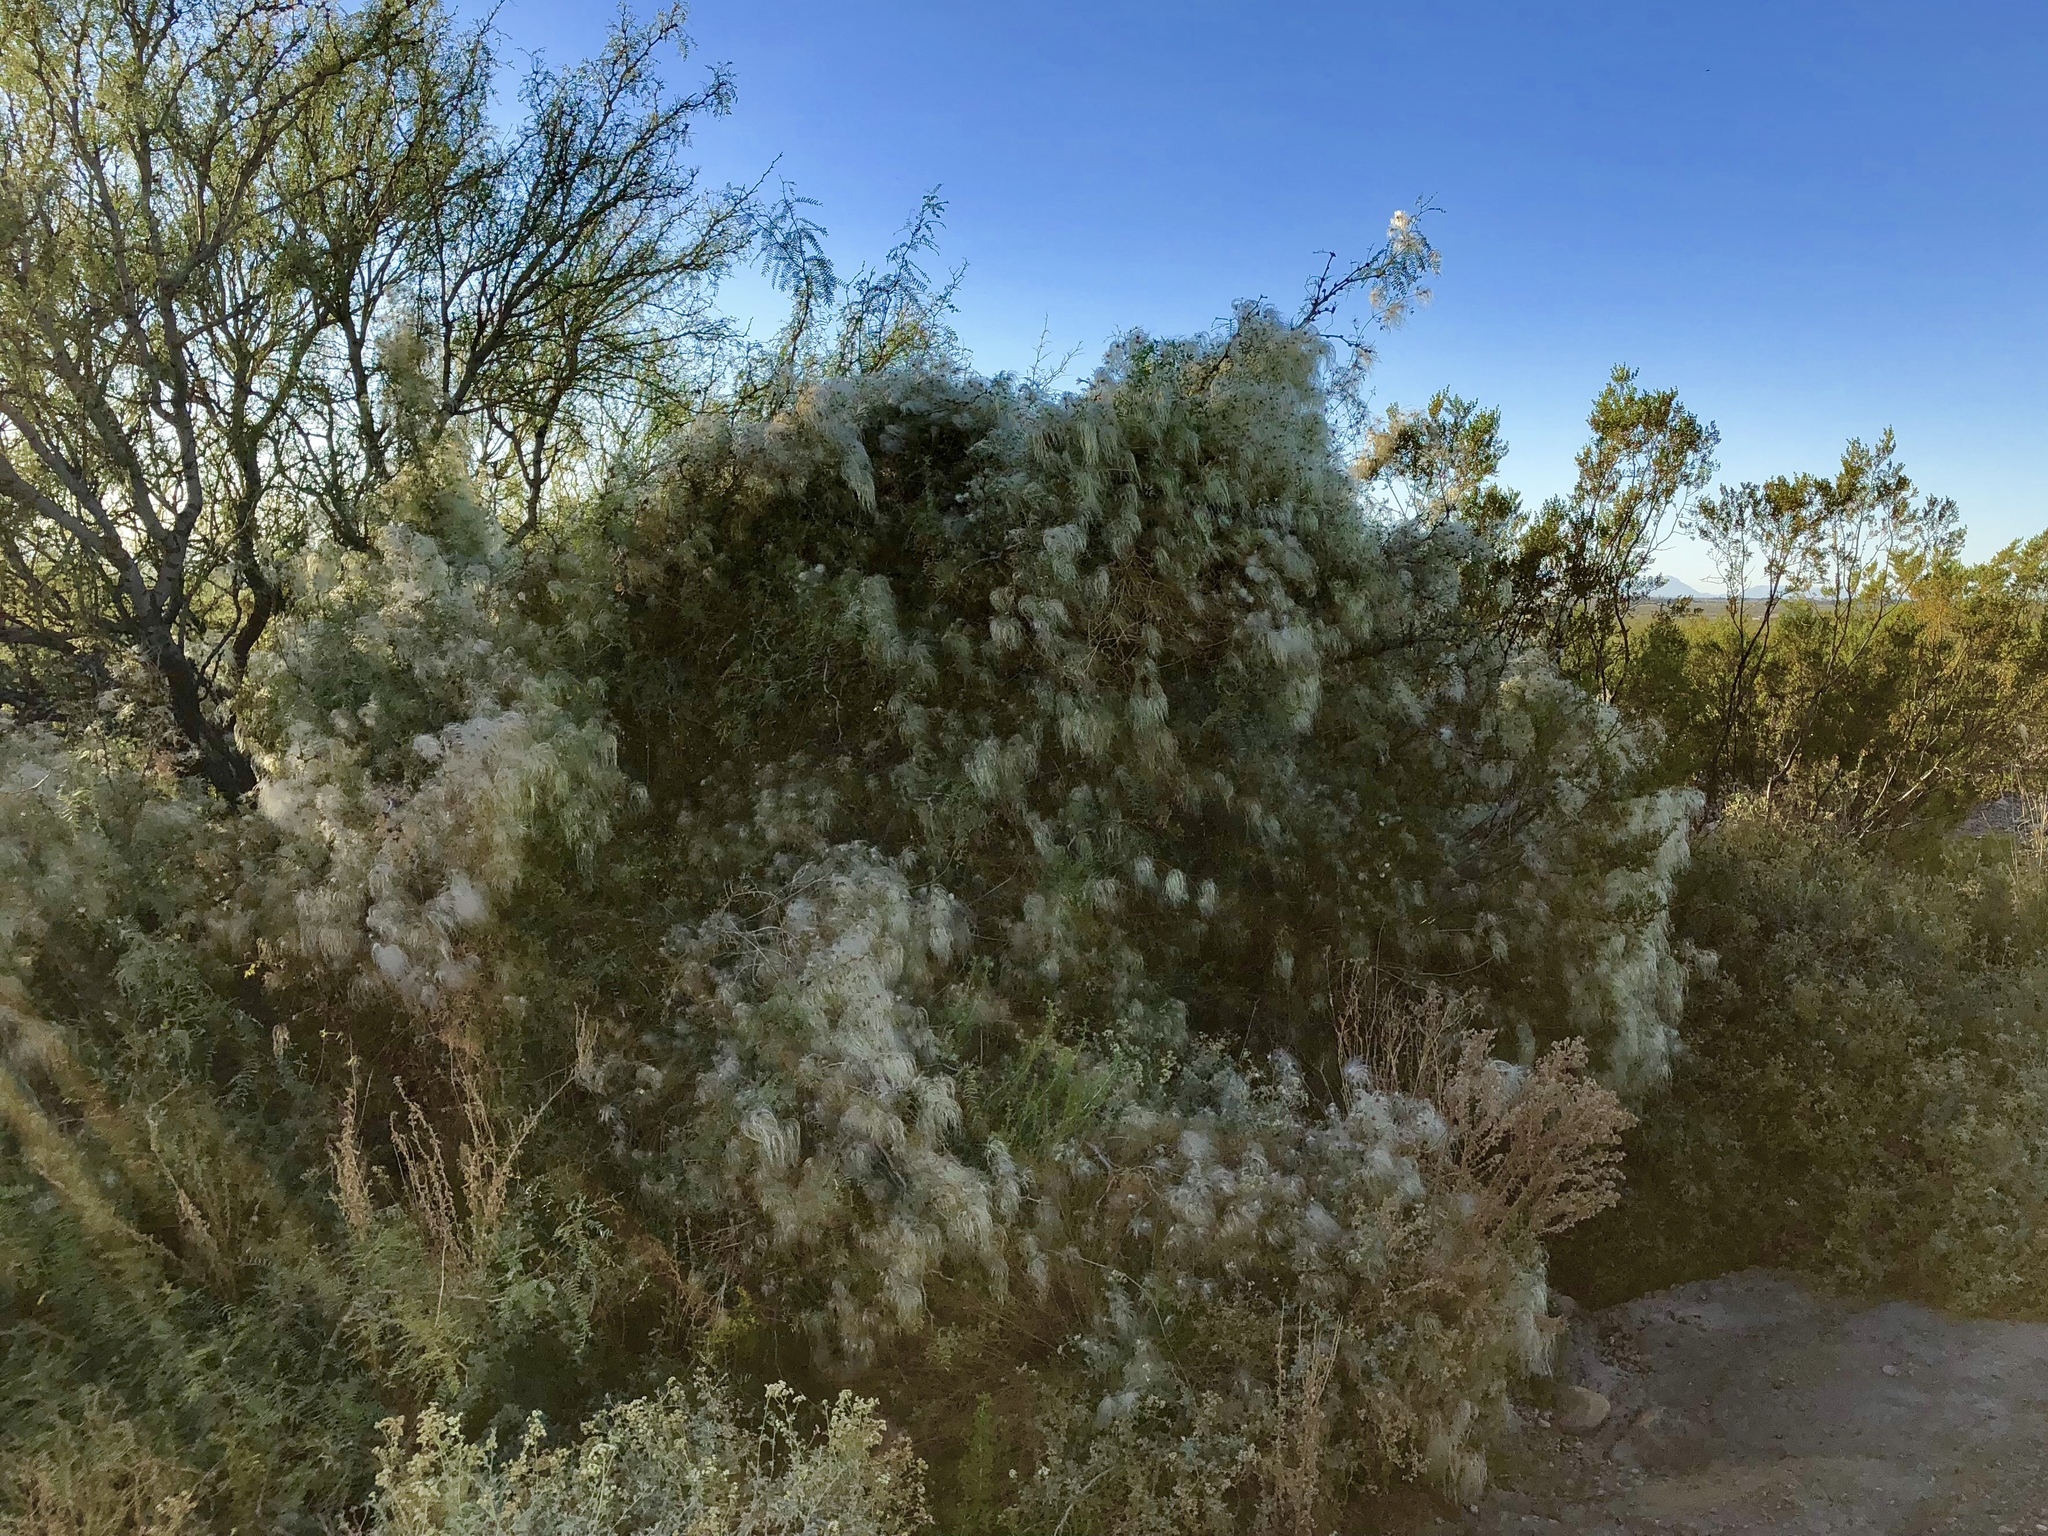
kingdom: Plantae
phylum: Tracheophyta
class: Magnoliopsida
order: Ranunculales
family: Ranunculaceae
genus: Clematis
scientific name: Clematis drummondii
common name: Texas virgin's bower
